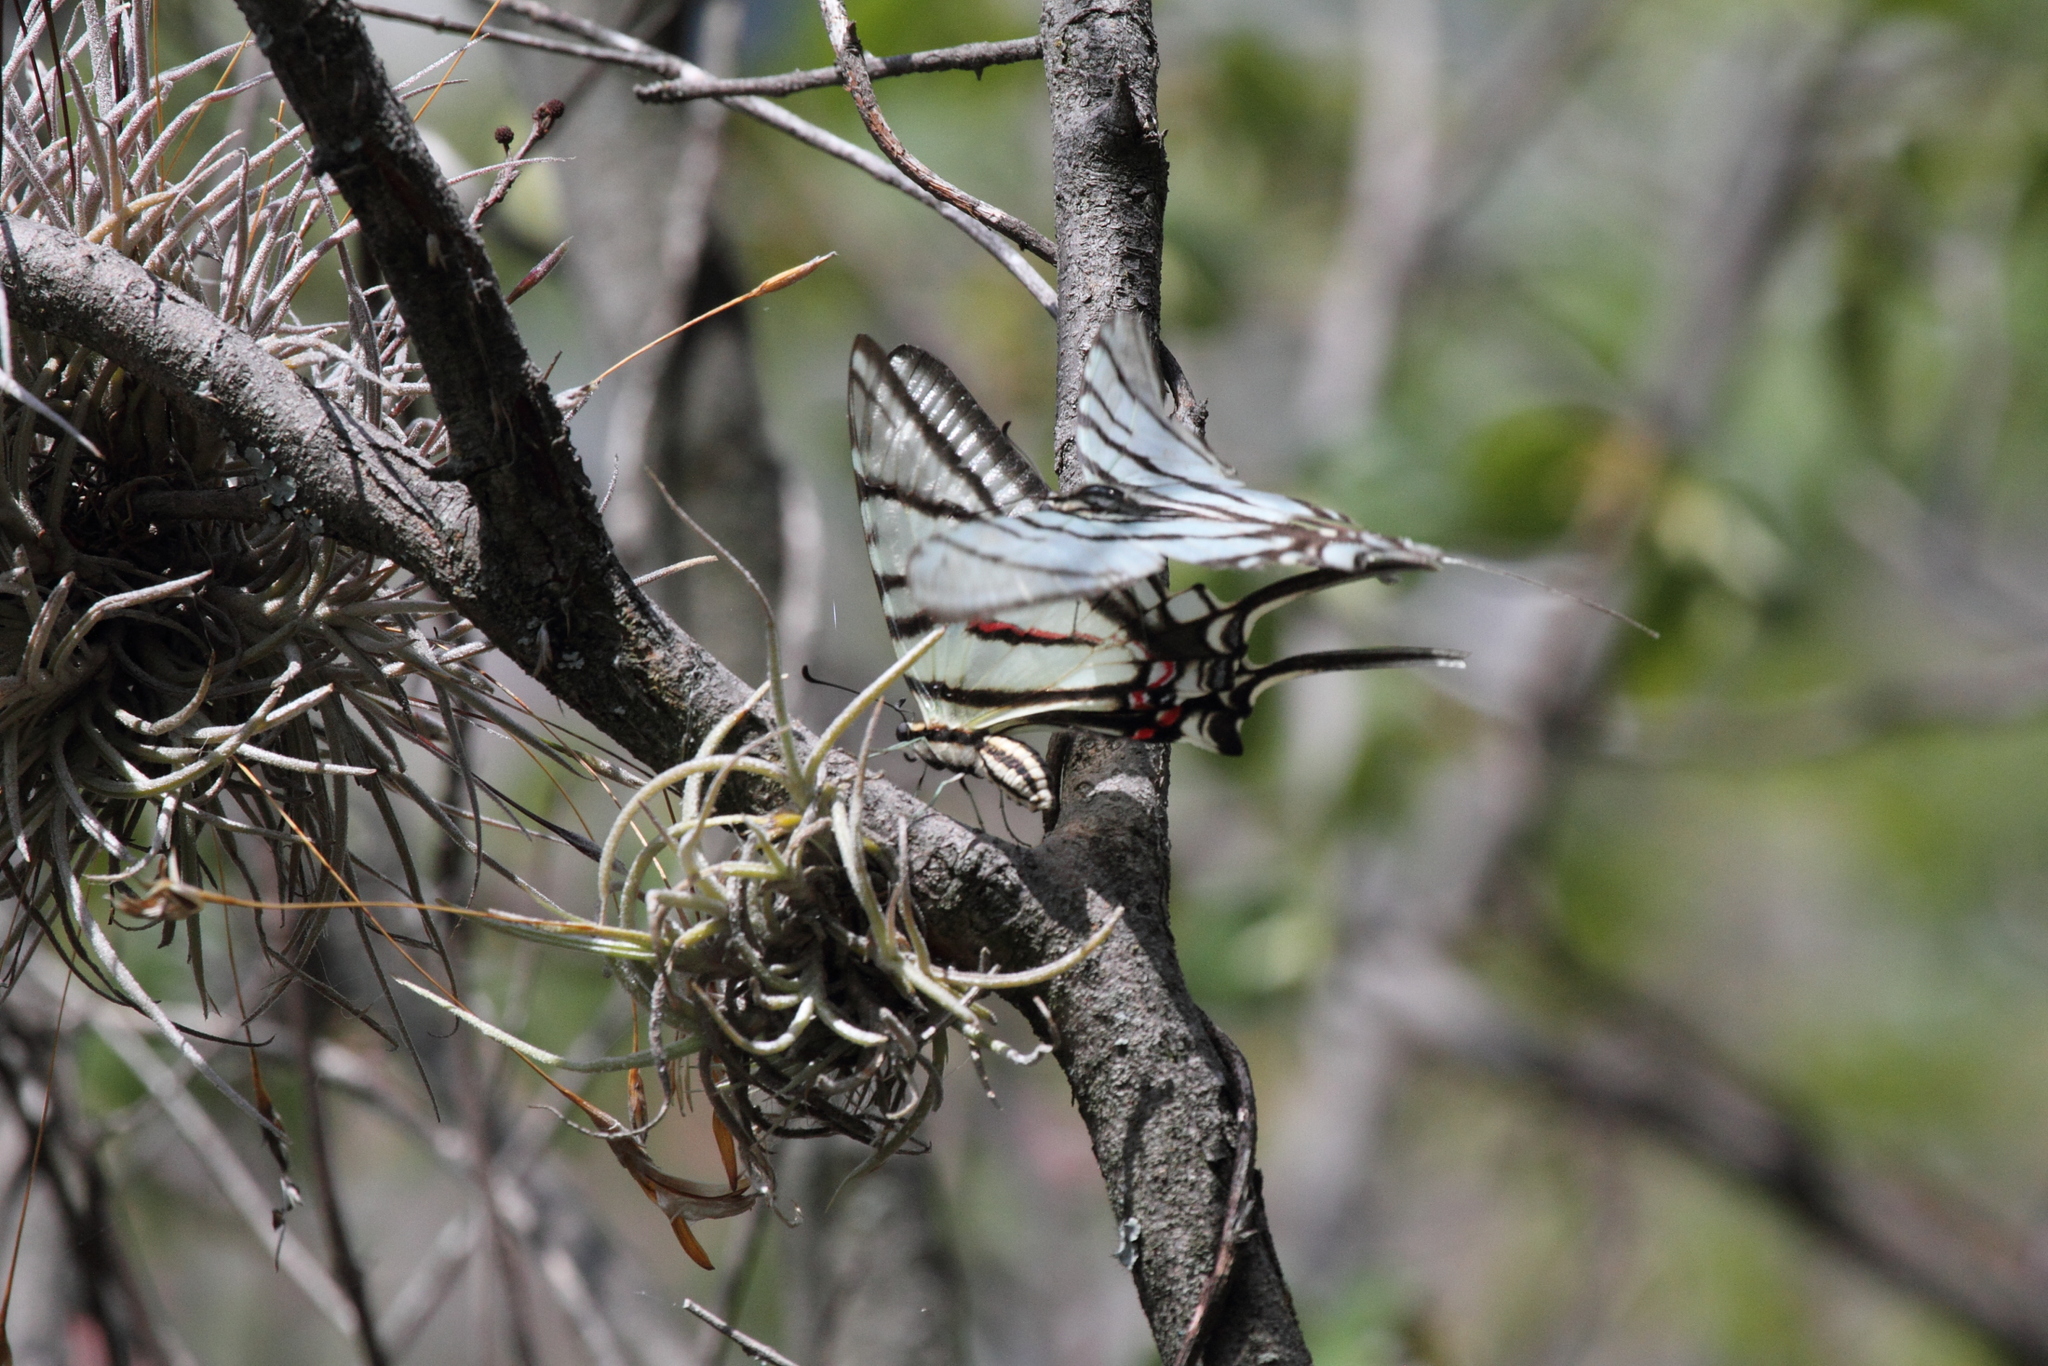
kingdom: Animalia
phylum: Arthropoda
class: Insecta
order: Lepidoptera
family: Papilionidae
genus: Protographium
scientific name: Protographium epidaus
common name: Mexican kite swallowtail
